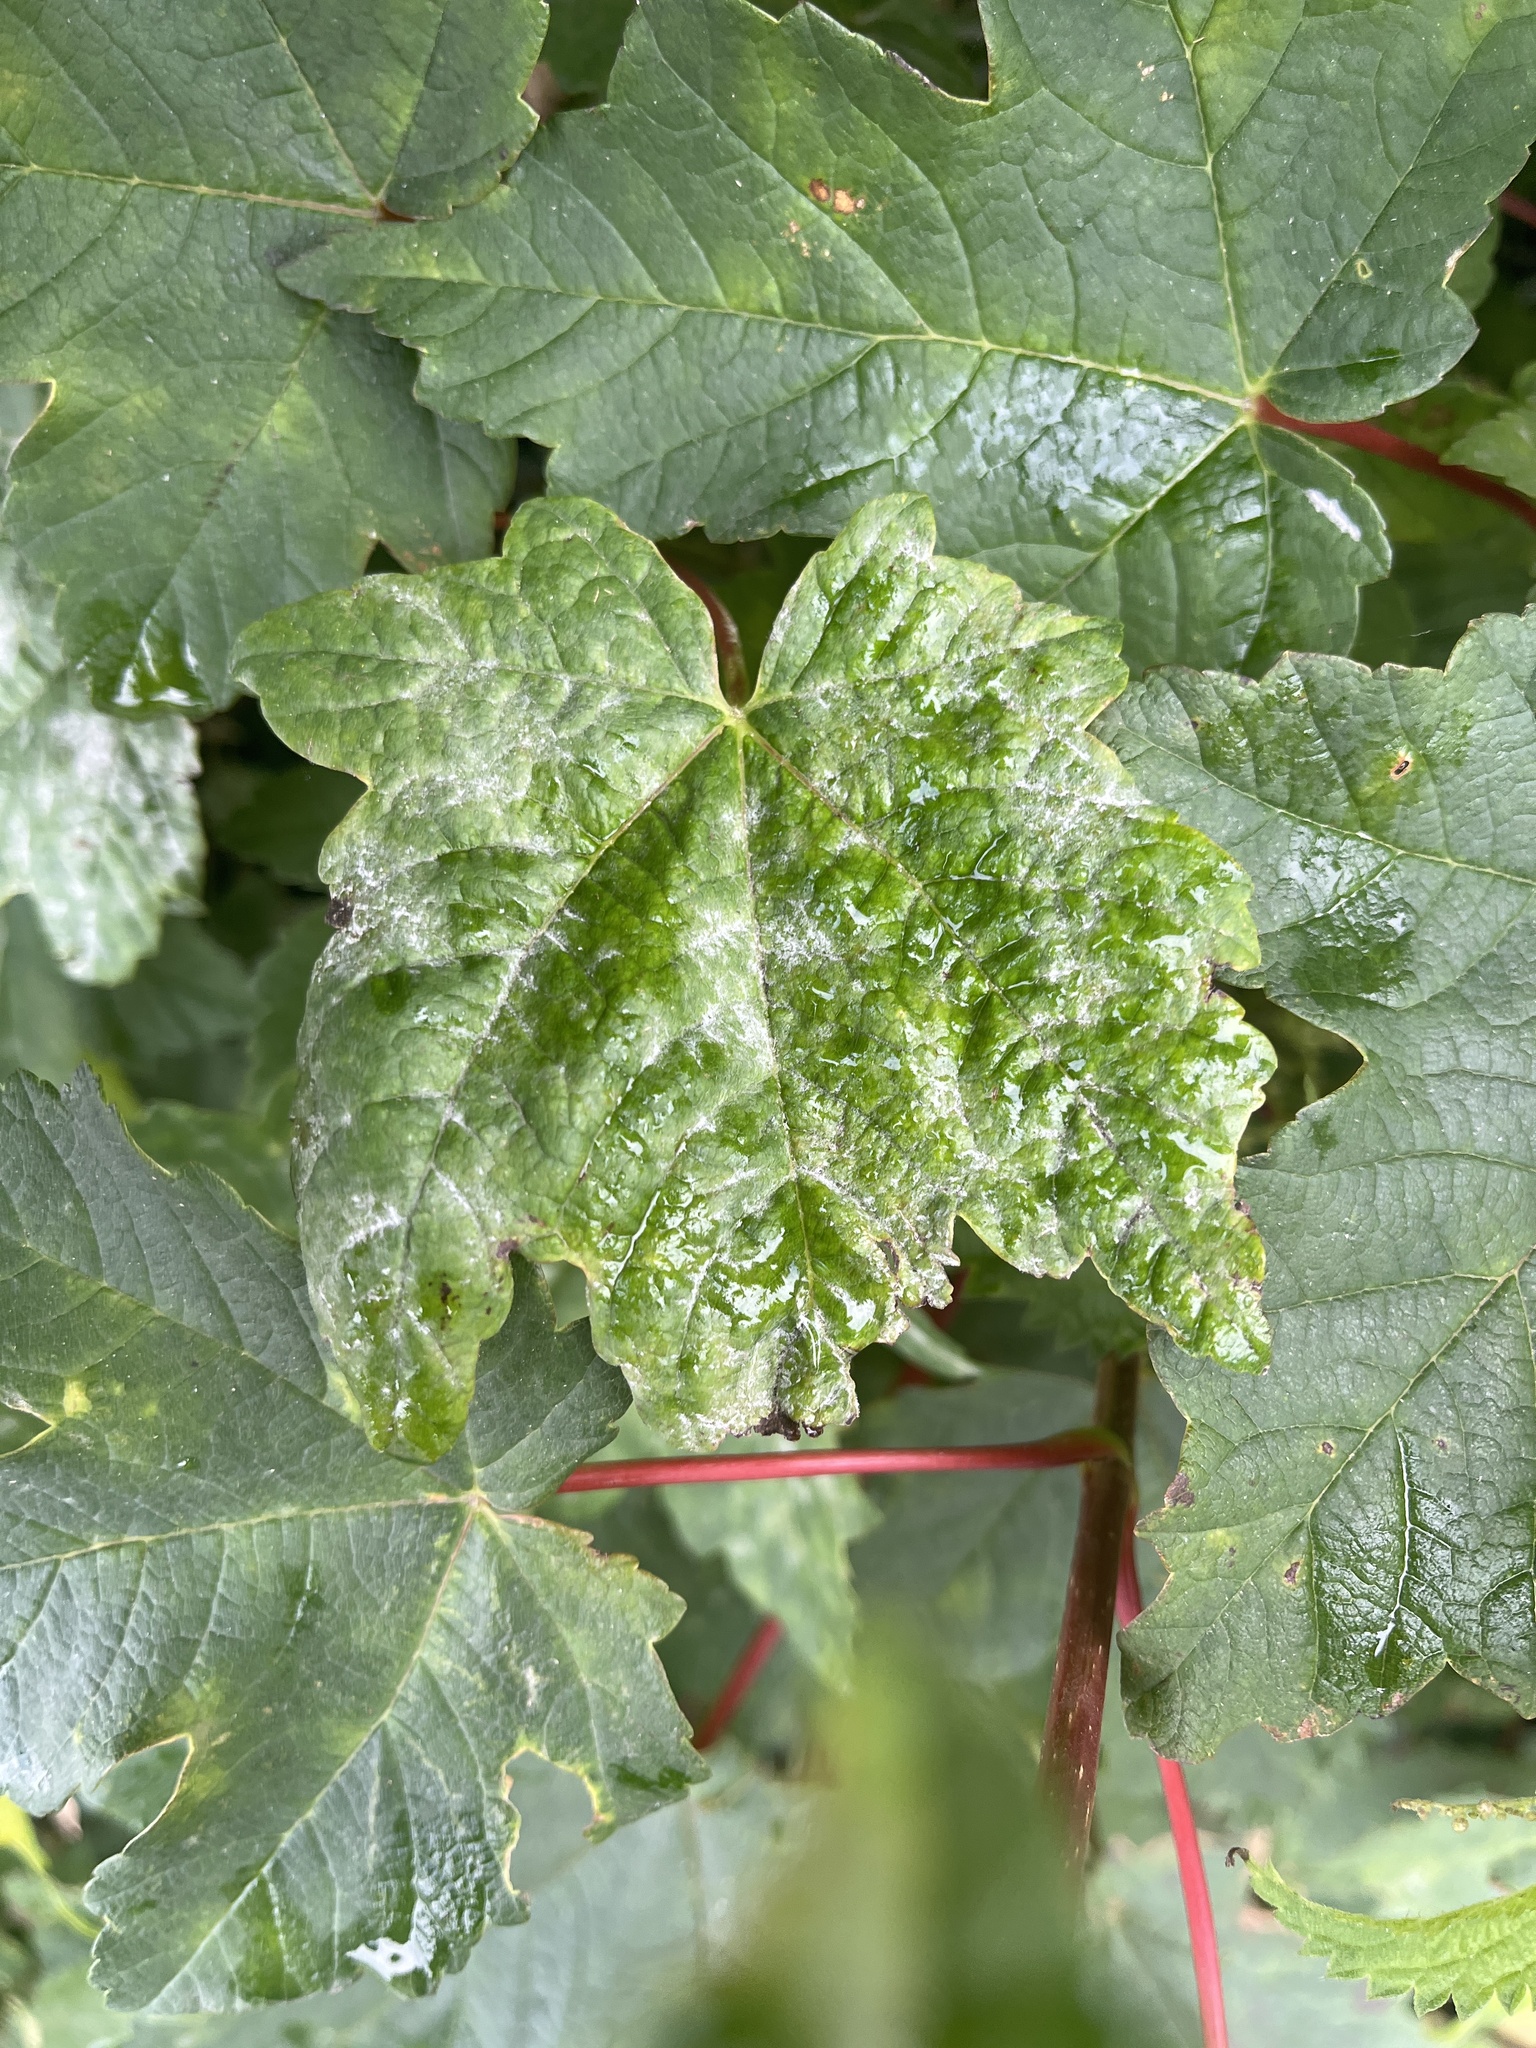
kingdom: Fungi
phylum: Ascomycota
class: Leotiomycetes
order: Helotiales
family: Erysiphaceae
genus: Sawadaea
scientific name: Sawadaea bicornis
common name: Maple mildew
